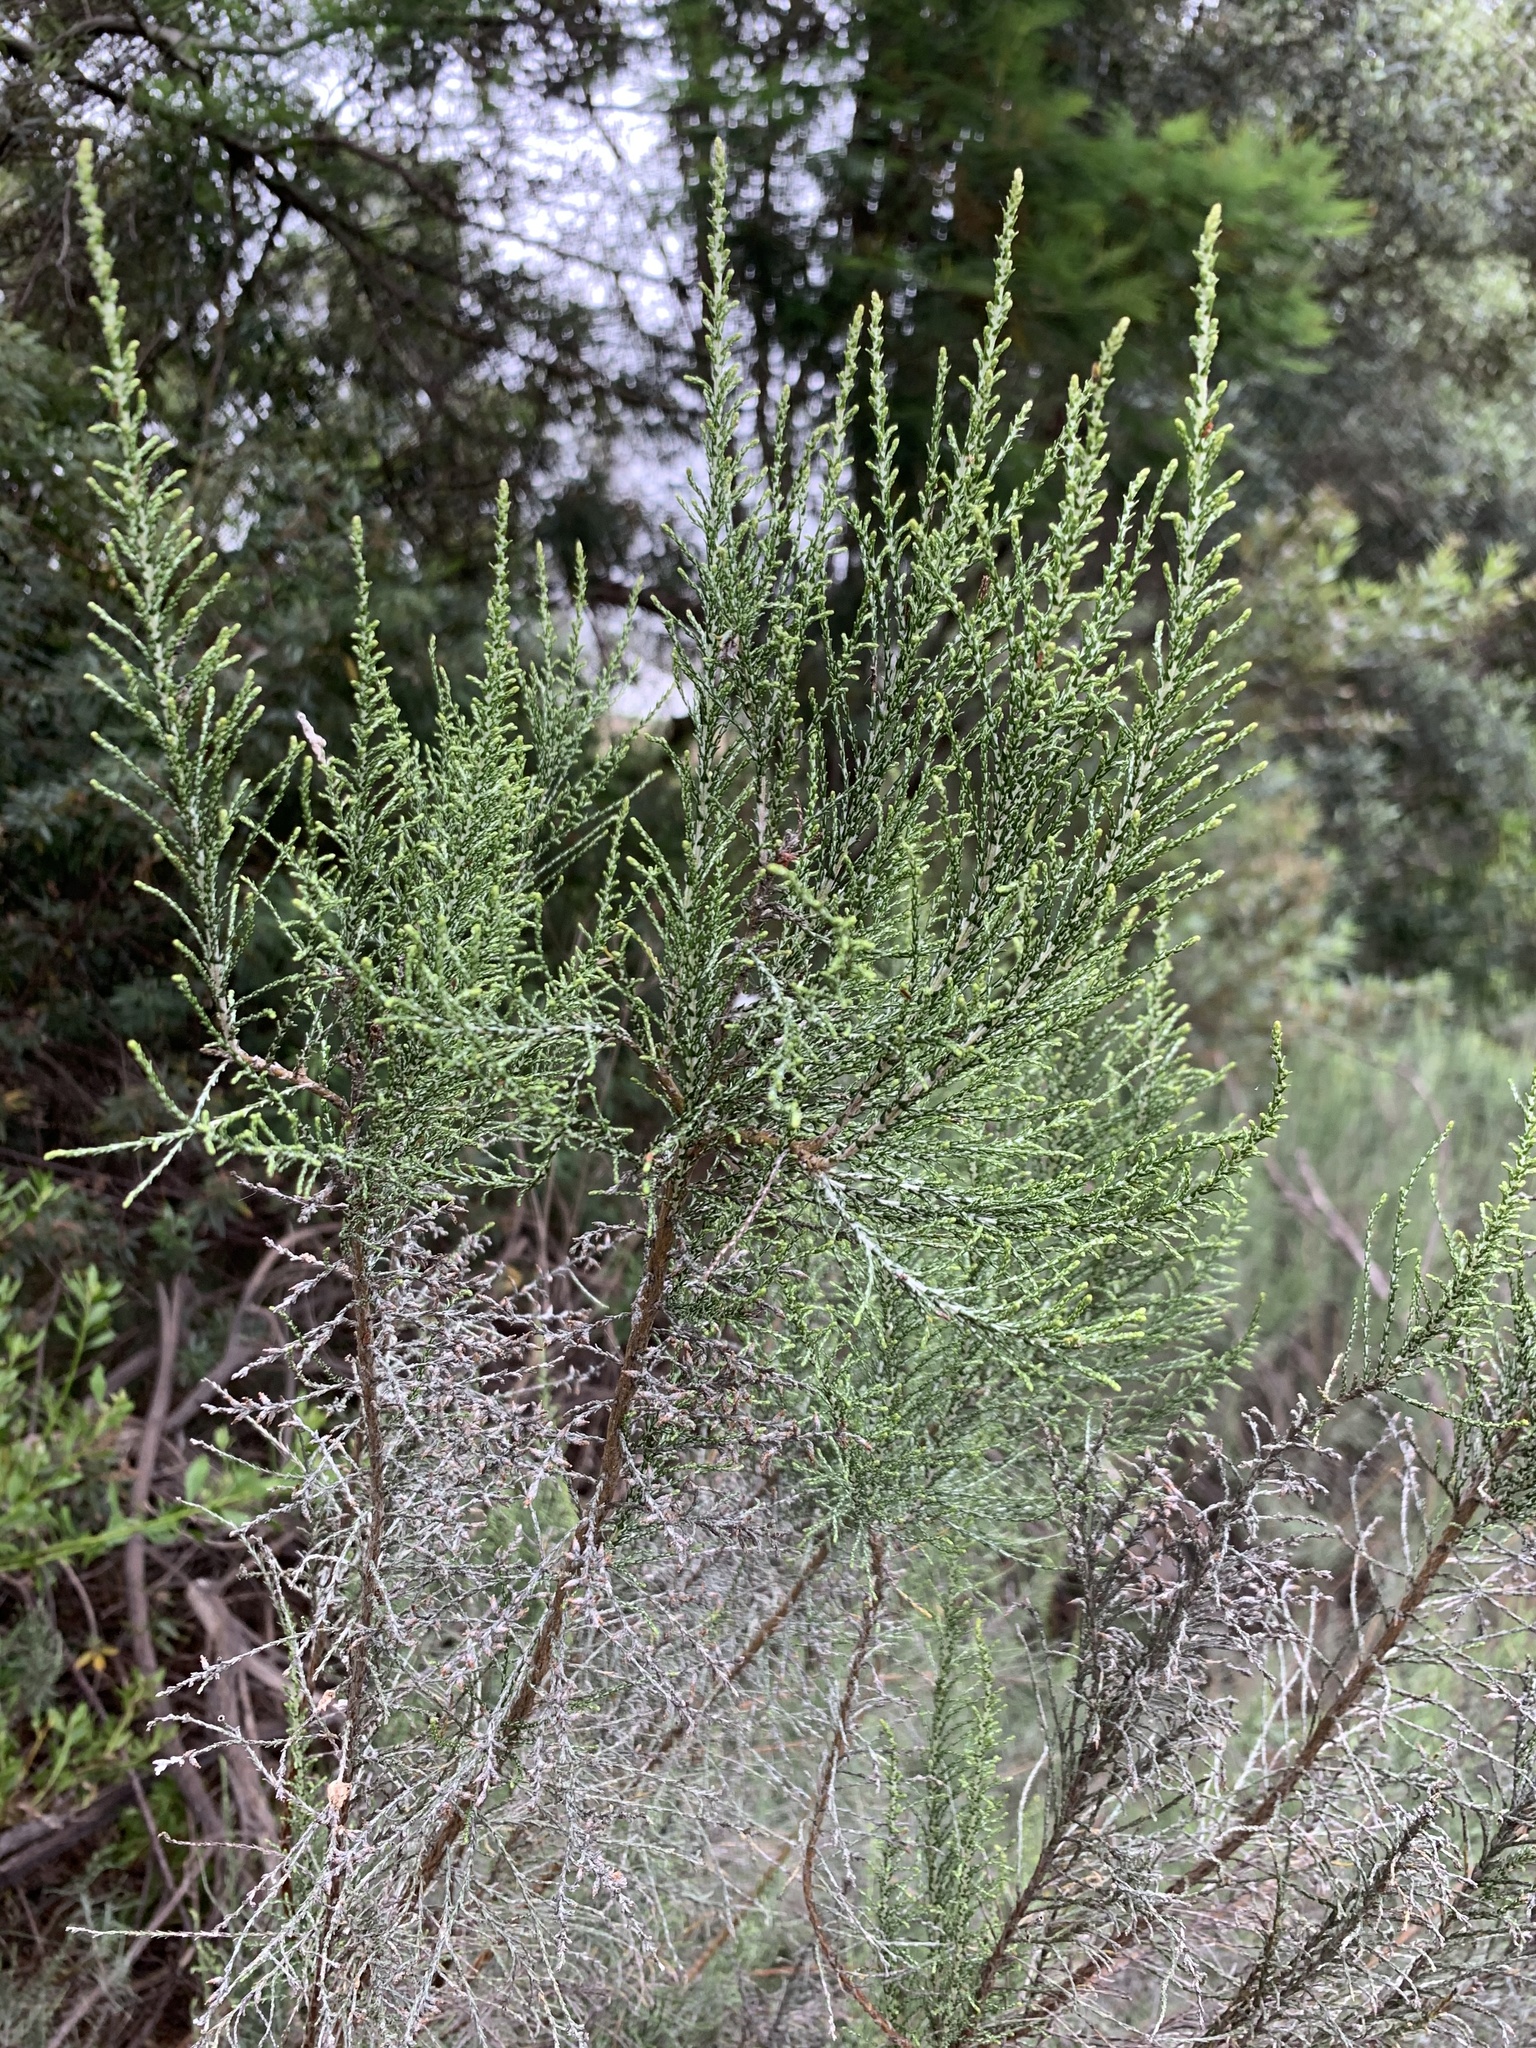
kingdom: Plantae
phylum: Tracheophyta
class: Magnoliopsida
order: Asterales
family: Asteraceae
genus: Dicerothamnus
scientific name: Dicerothamnus rhinocerotis
